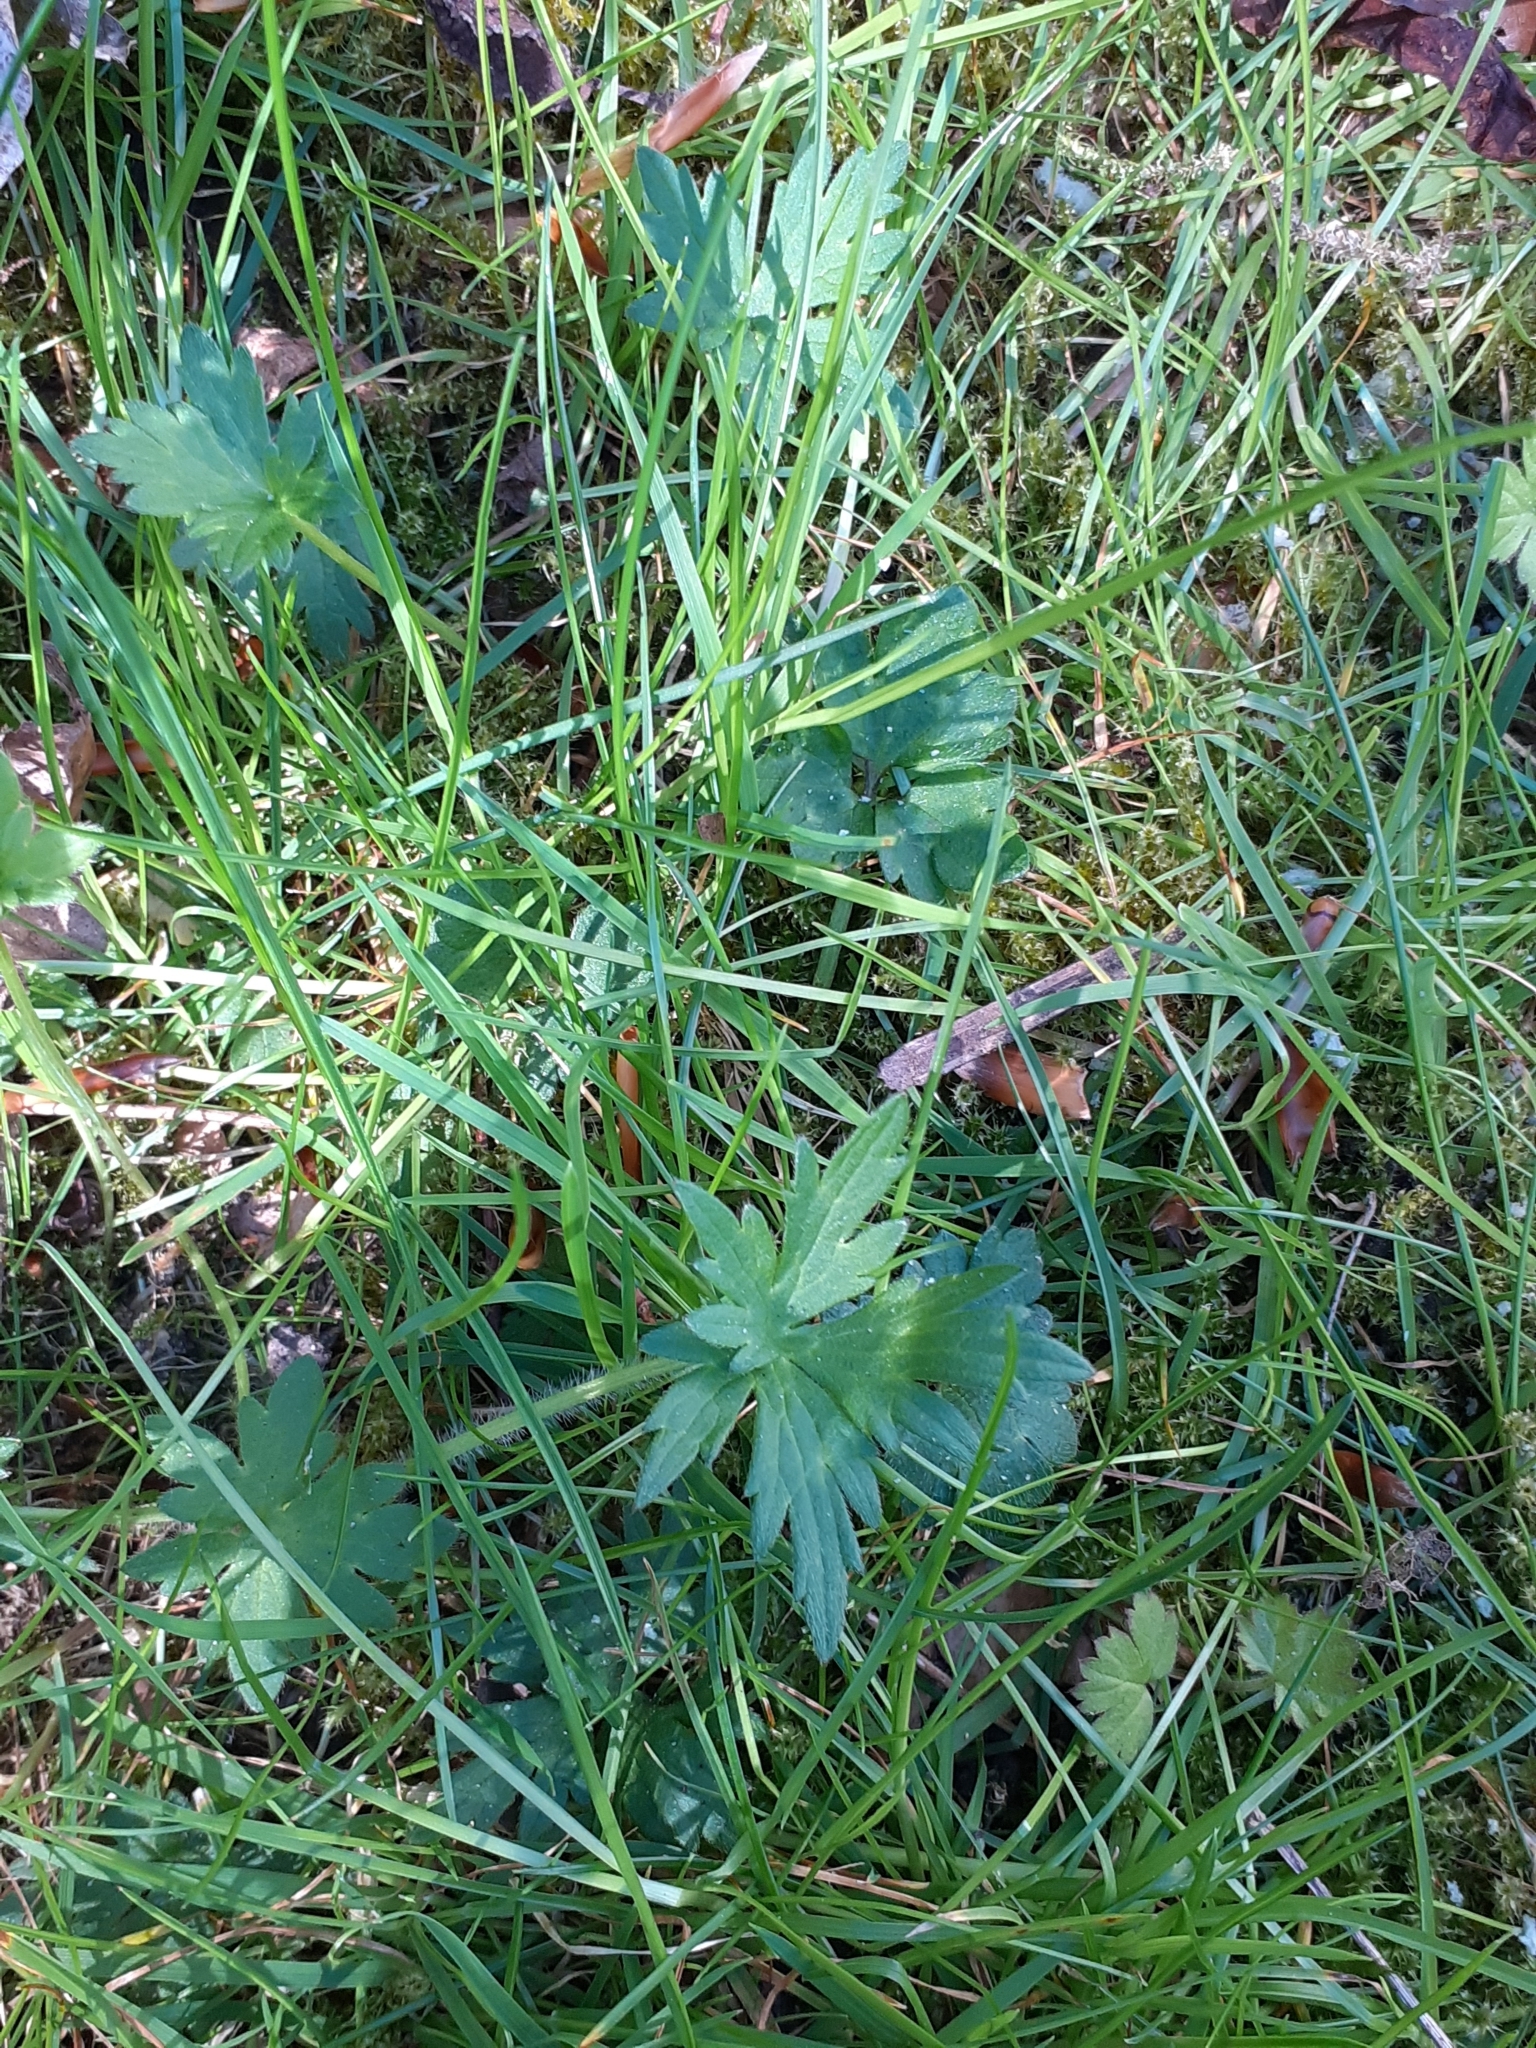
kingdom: Plantae
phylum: Tracheophyta
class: Magnoliopsida
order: Ranunculales
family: Ranunculaceae
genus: Ranunculus
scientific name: Ranunculus repens
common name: Creeping buttercup
